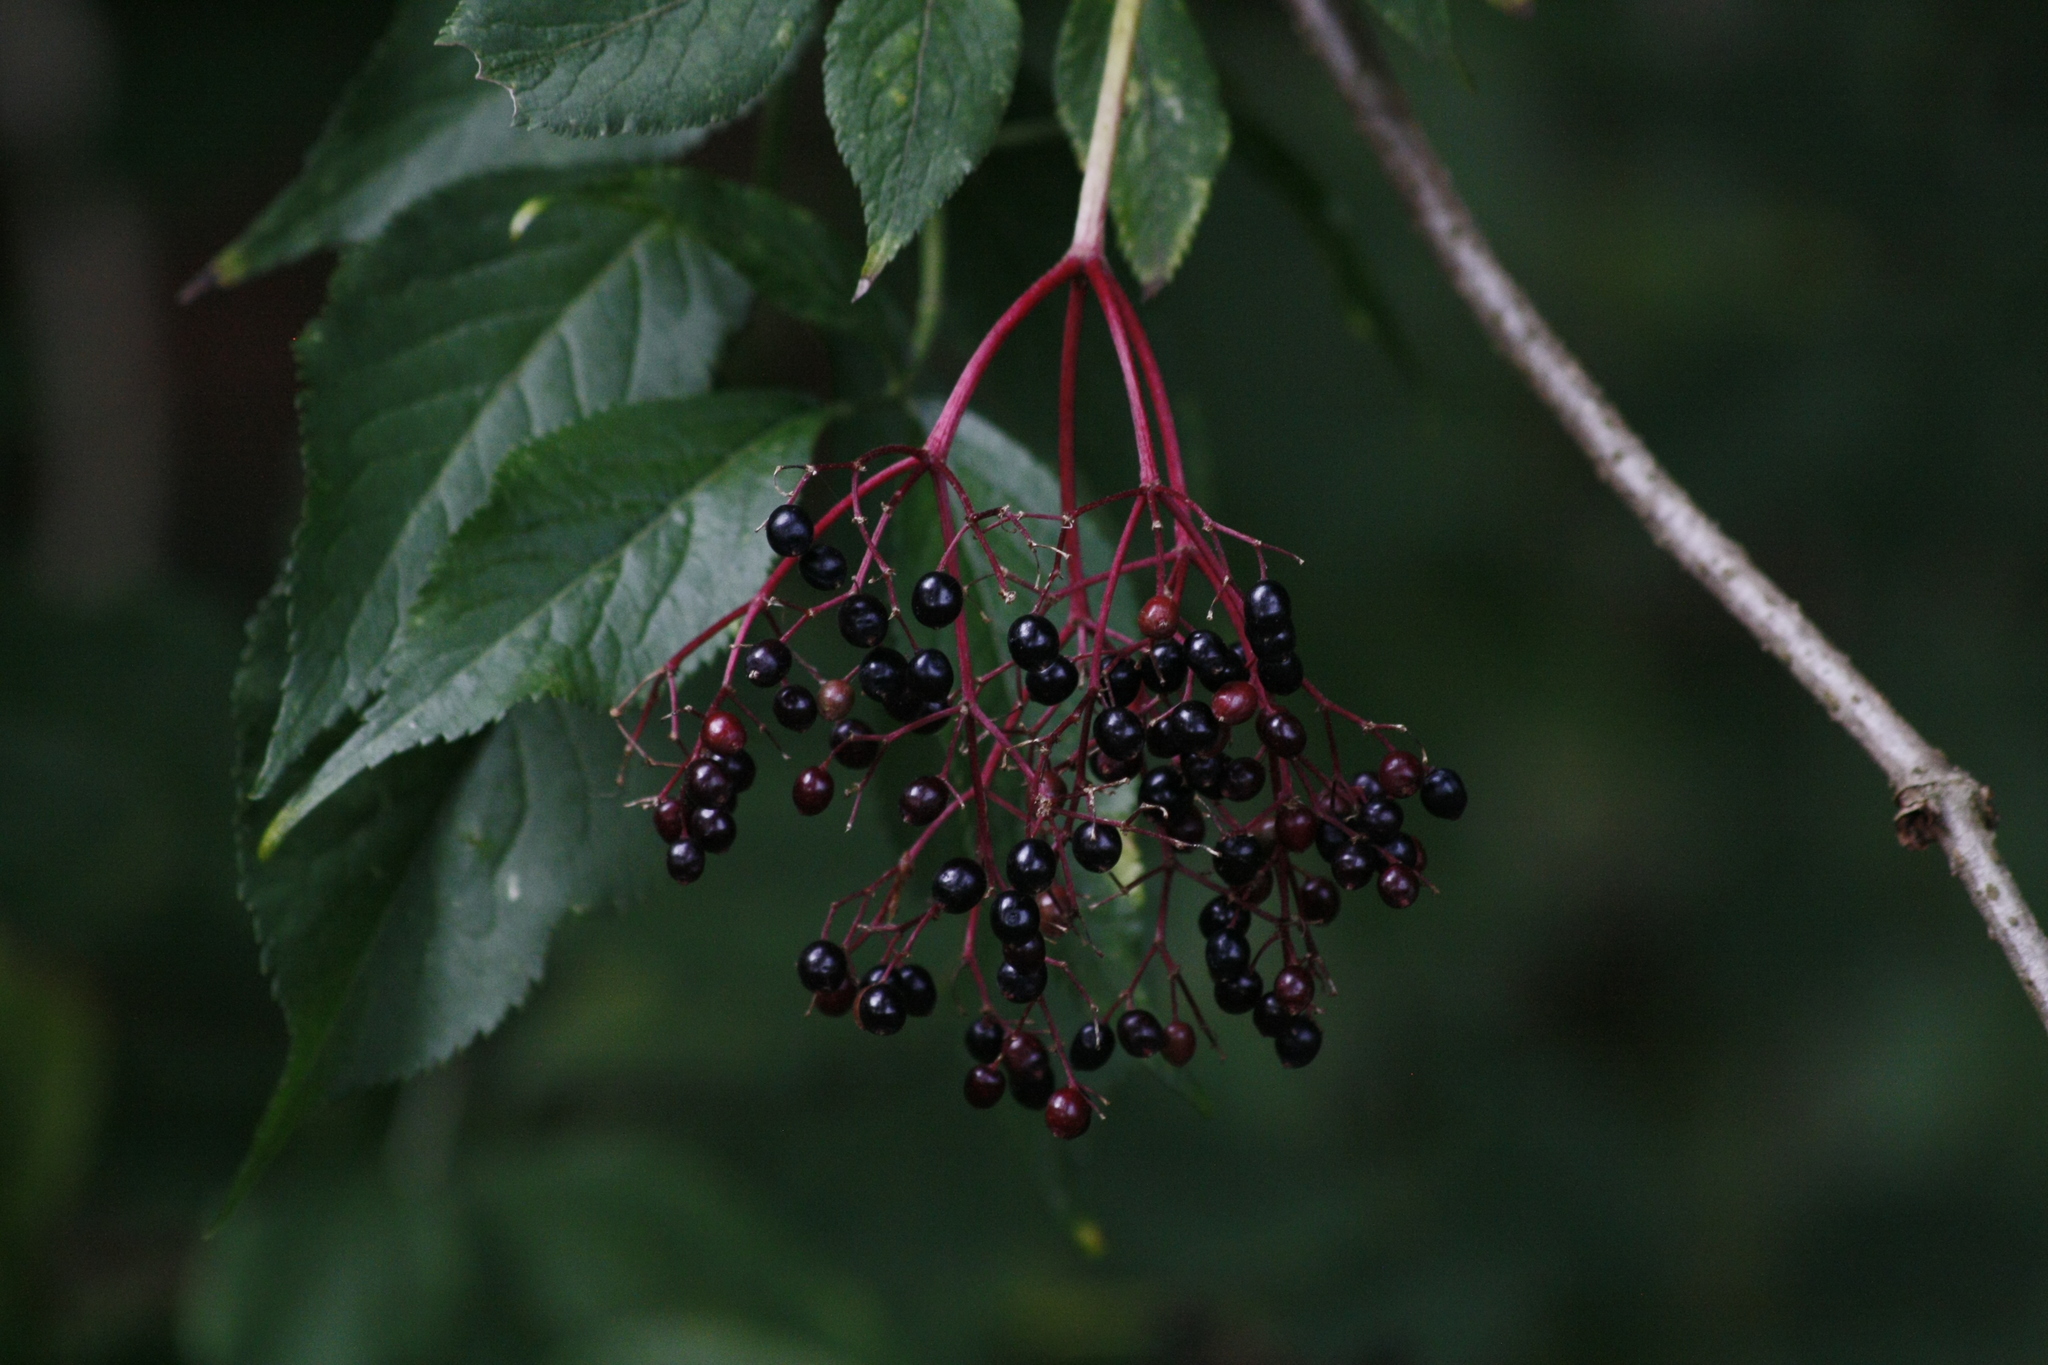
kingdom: Plantae
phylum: Tracheophyta
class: Magnoliopsida
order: Dipsacales
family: Viburnaceae
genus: Sambucus
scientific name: Sambucus nigra
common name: Elder
